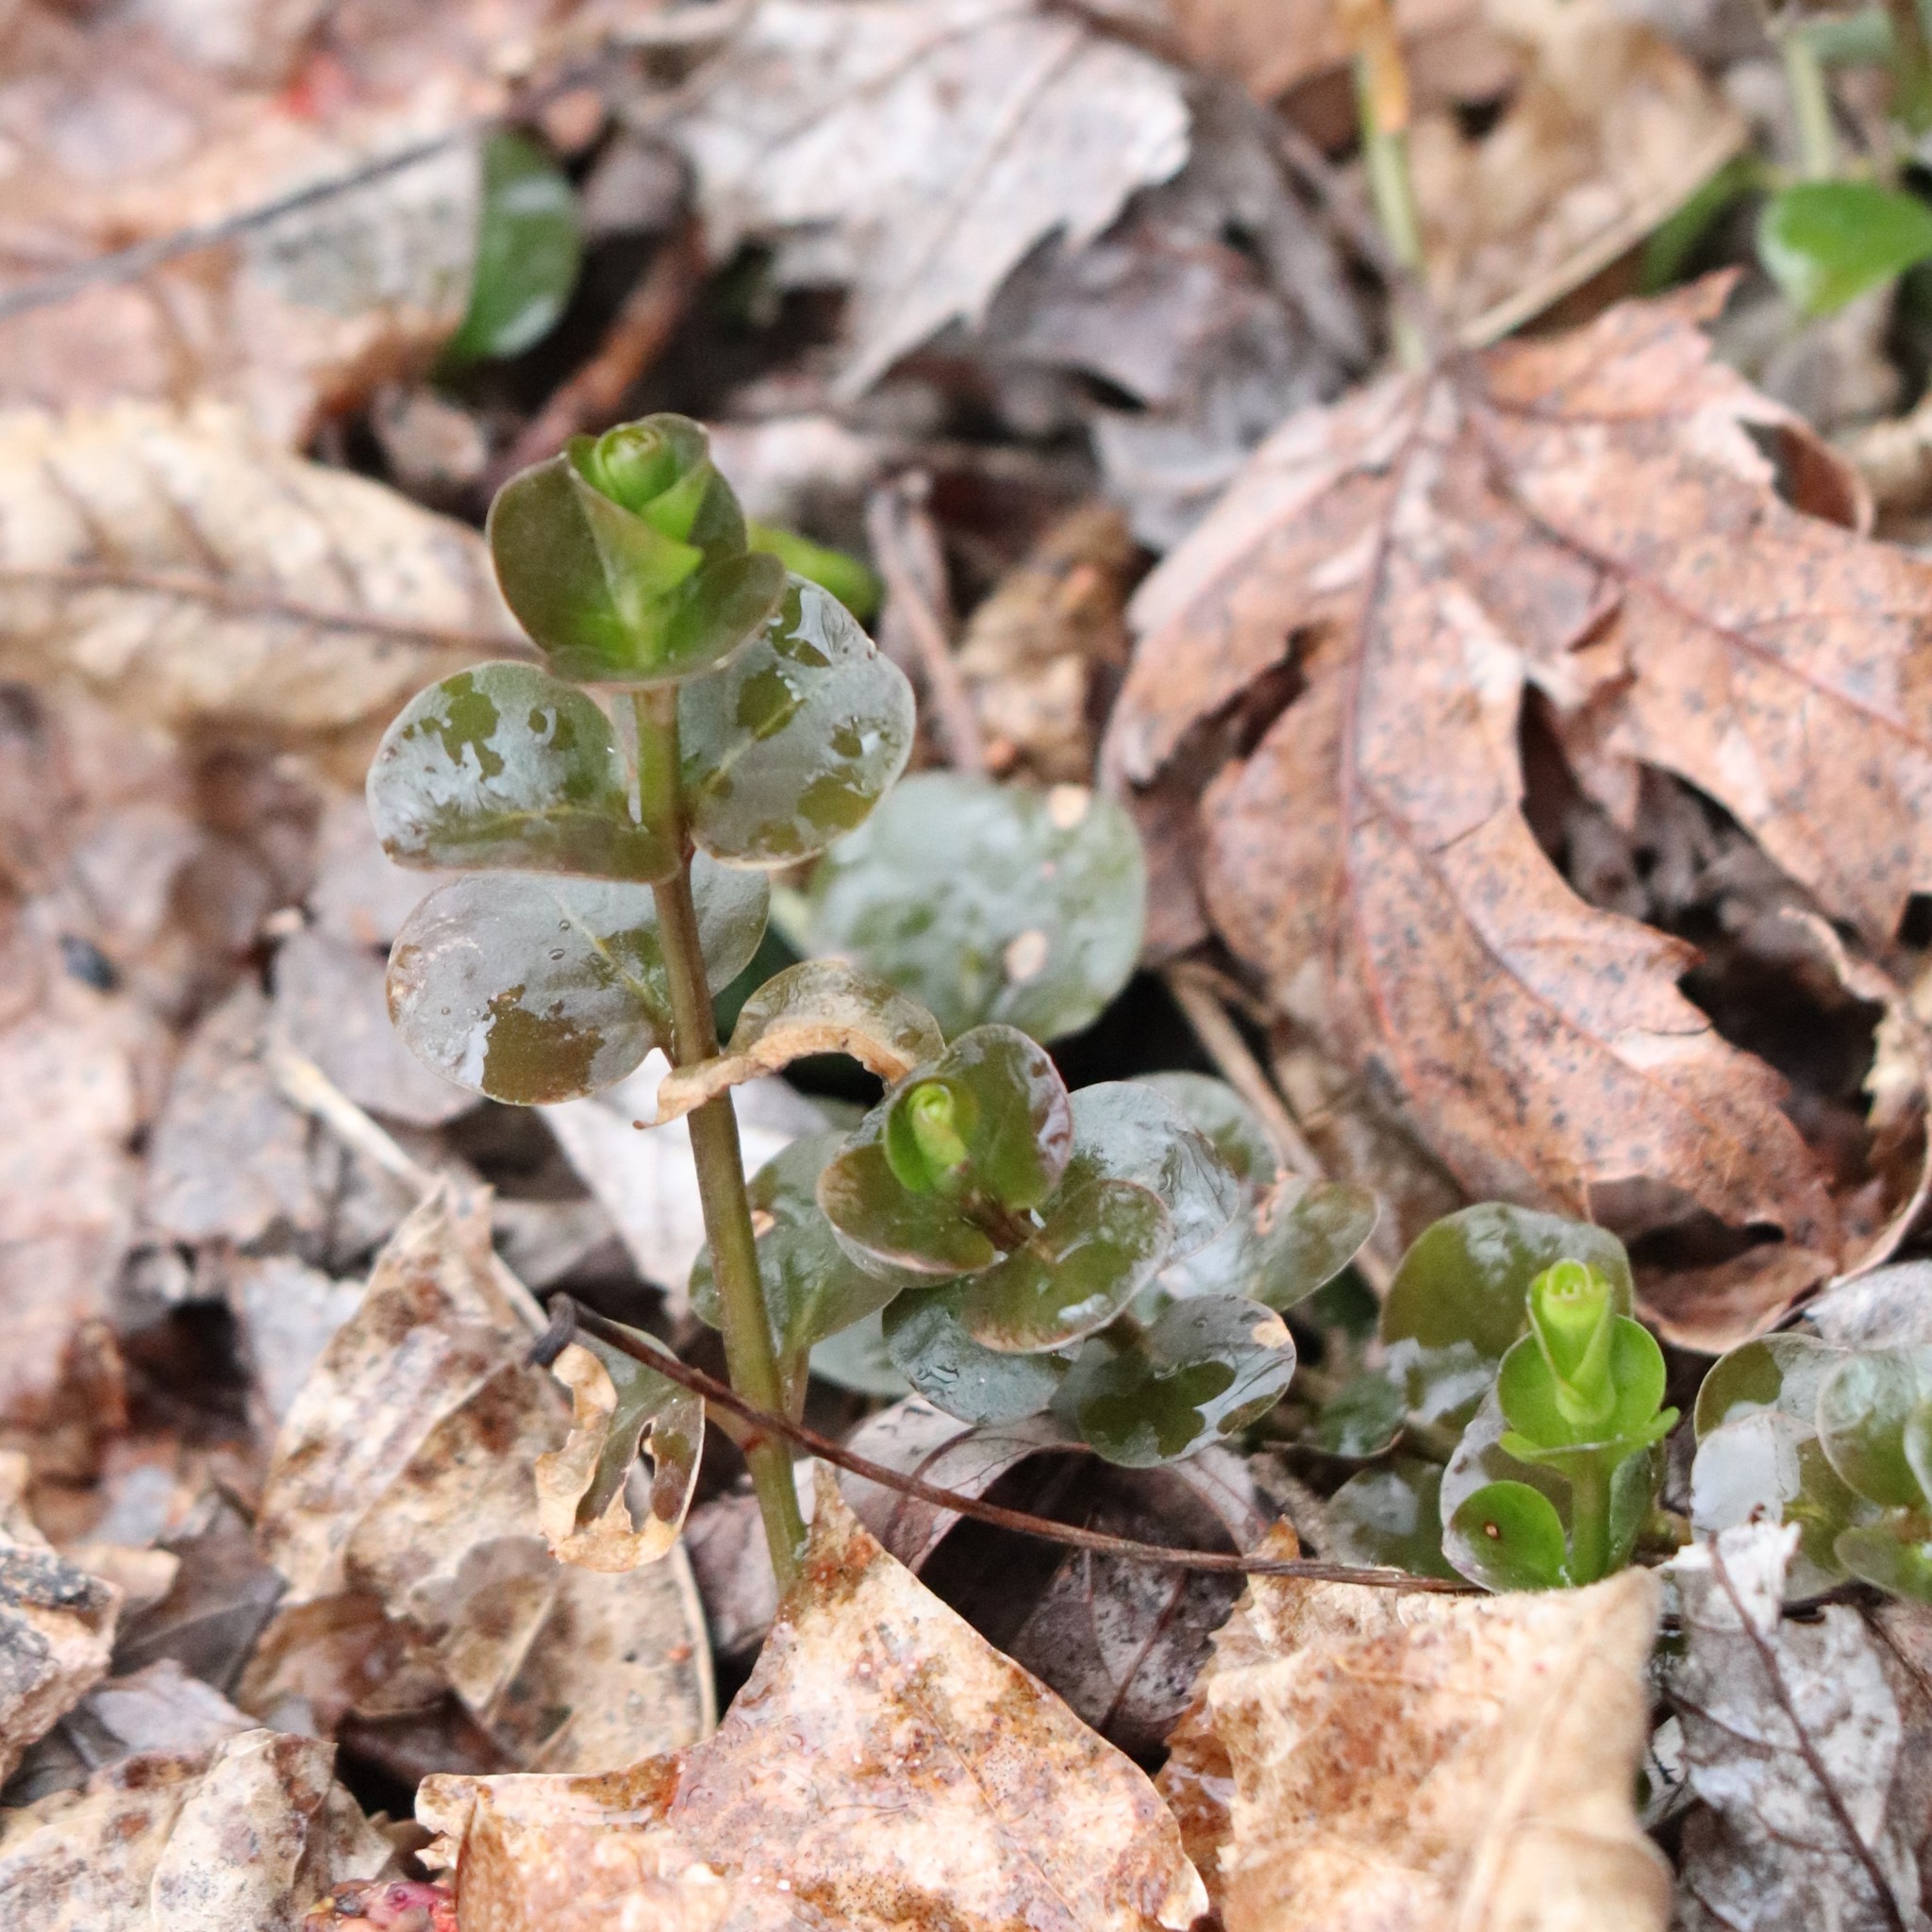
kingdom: Plantae
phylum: Tracheophyta
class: Magnoliopsida
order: Ericales
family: Primulaceae
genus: Lysimachia
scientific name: Lysimachia nummularia
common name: Moneywort
